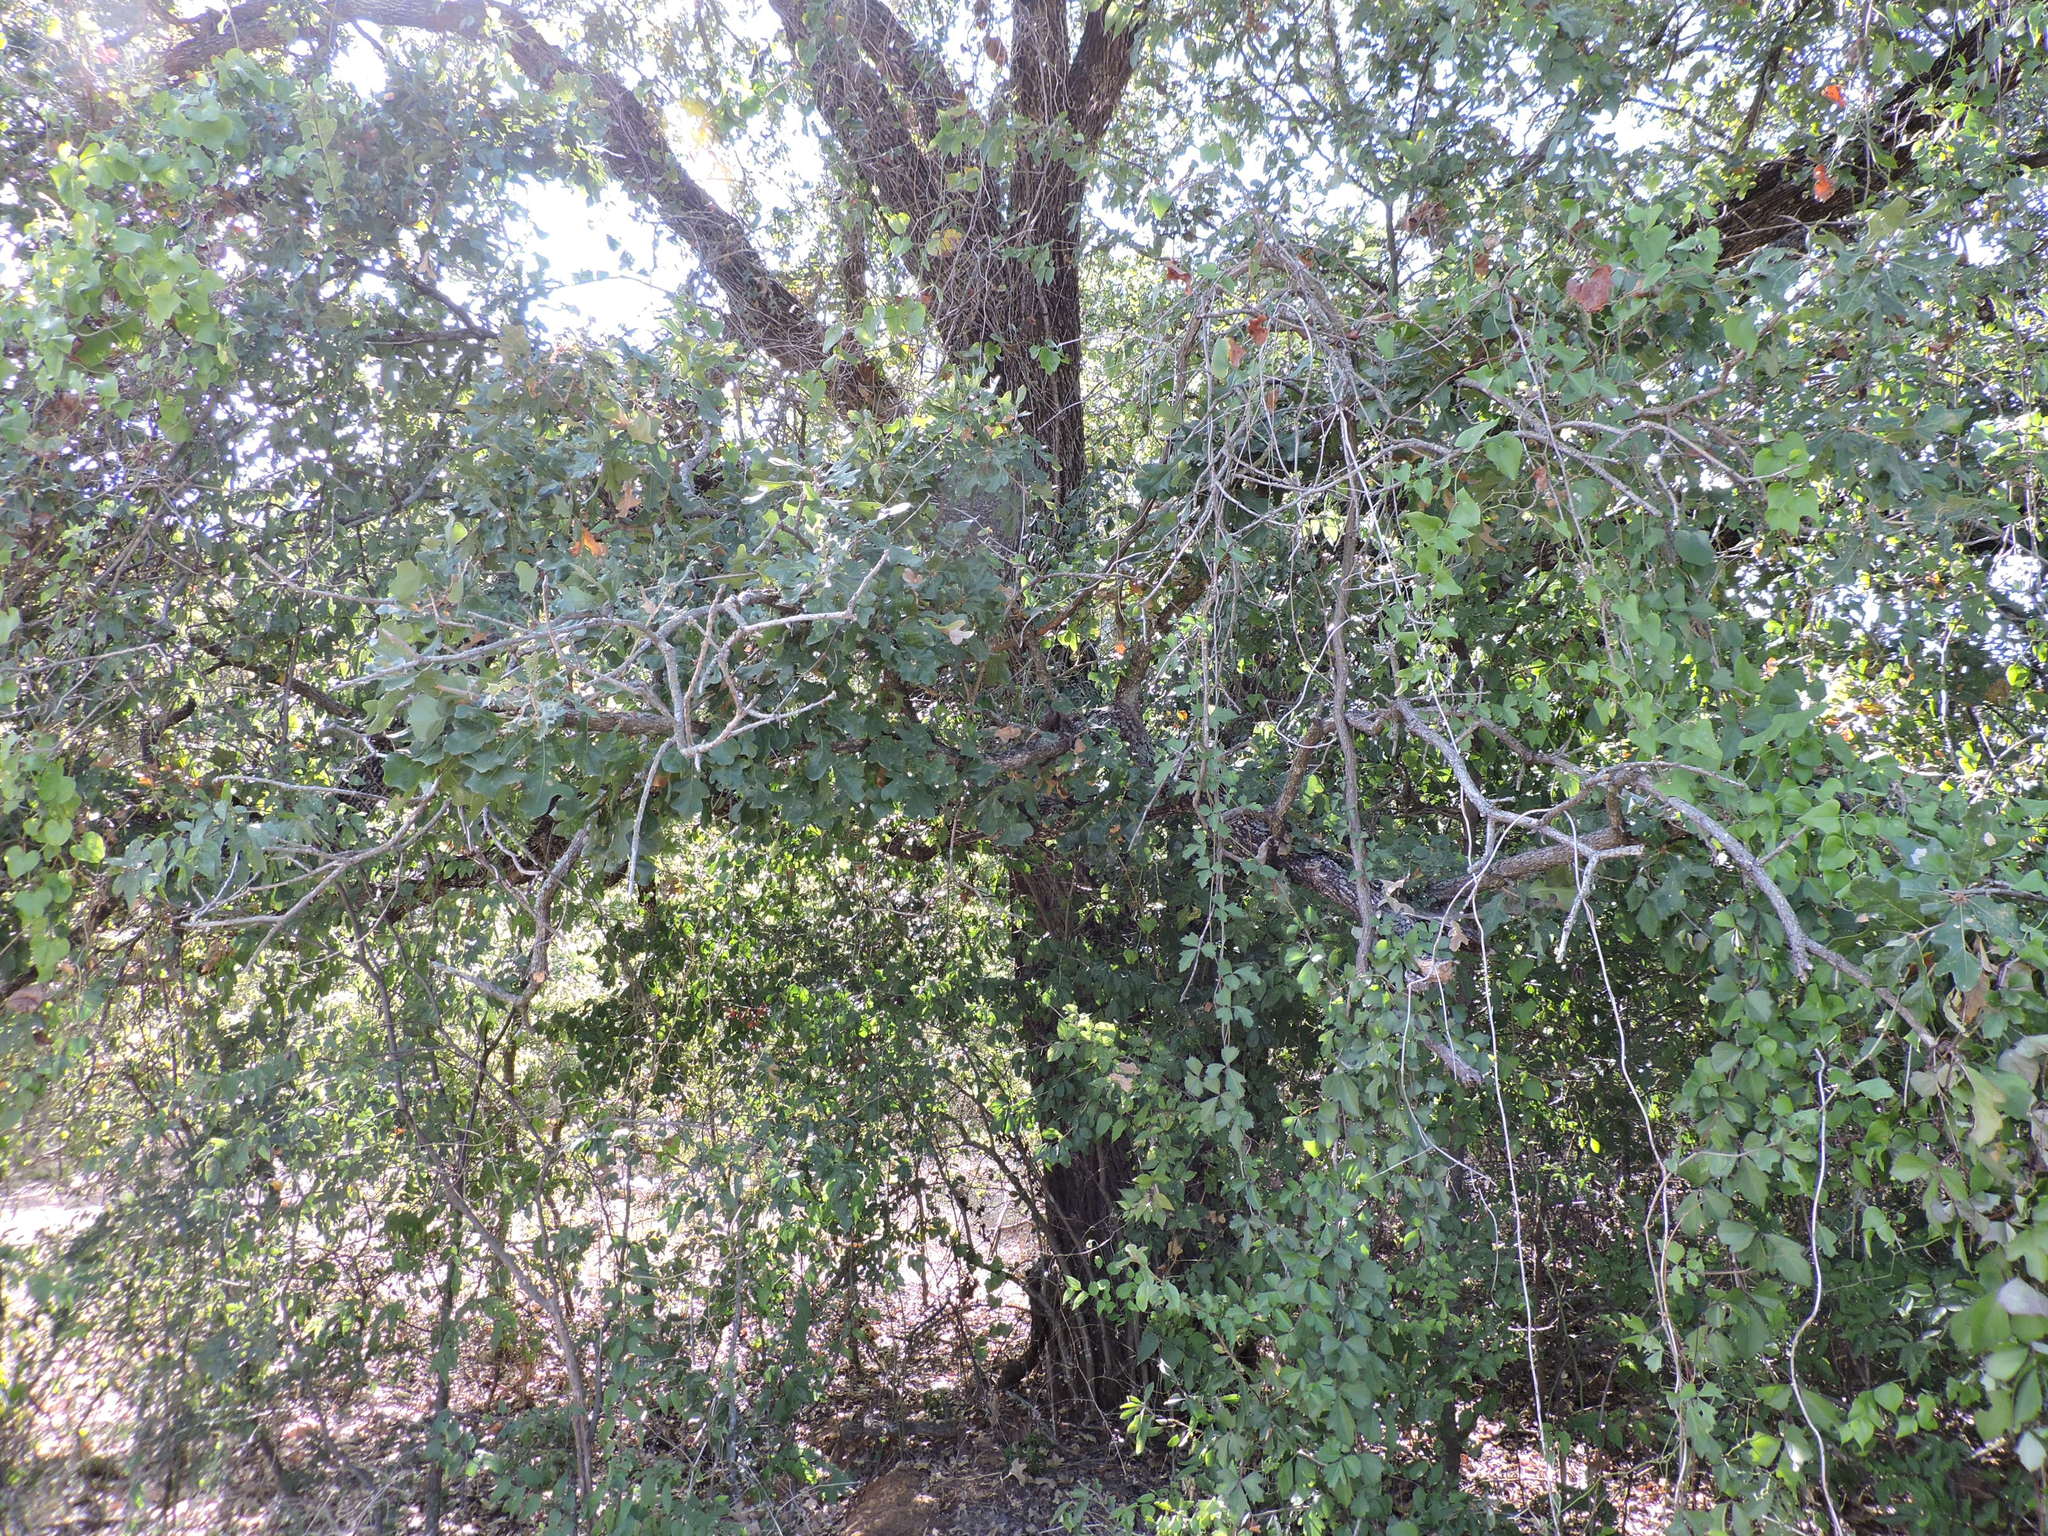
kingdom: Plantae
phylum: Tracheophyta
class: Magnoliopsida
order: Fagales
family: Fagaceae
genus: Quercus
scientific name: Quercus stellata
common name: Post oak
